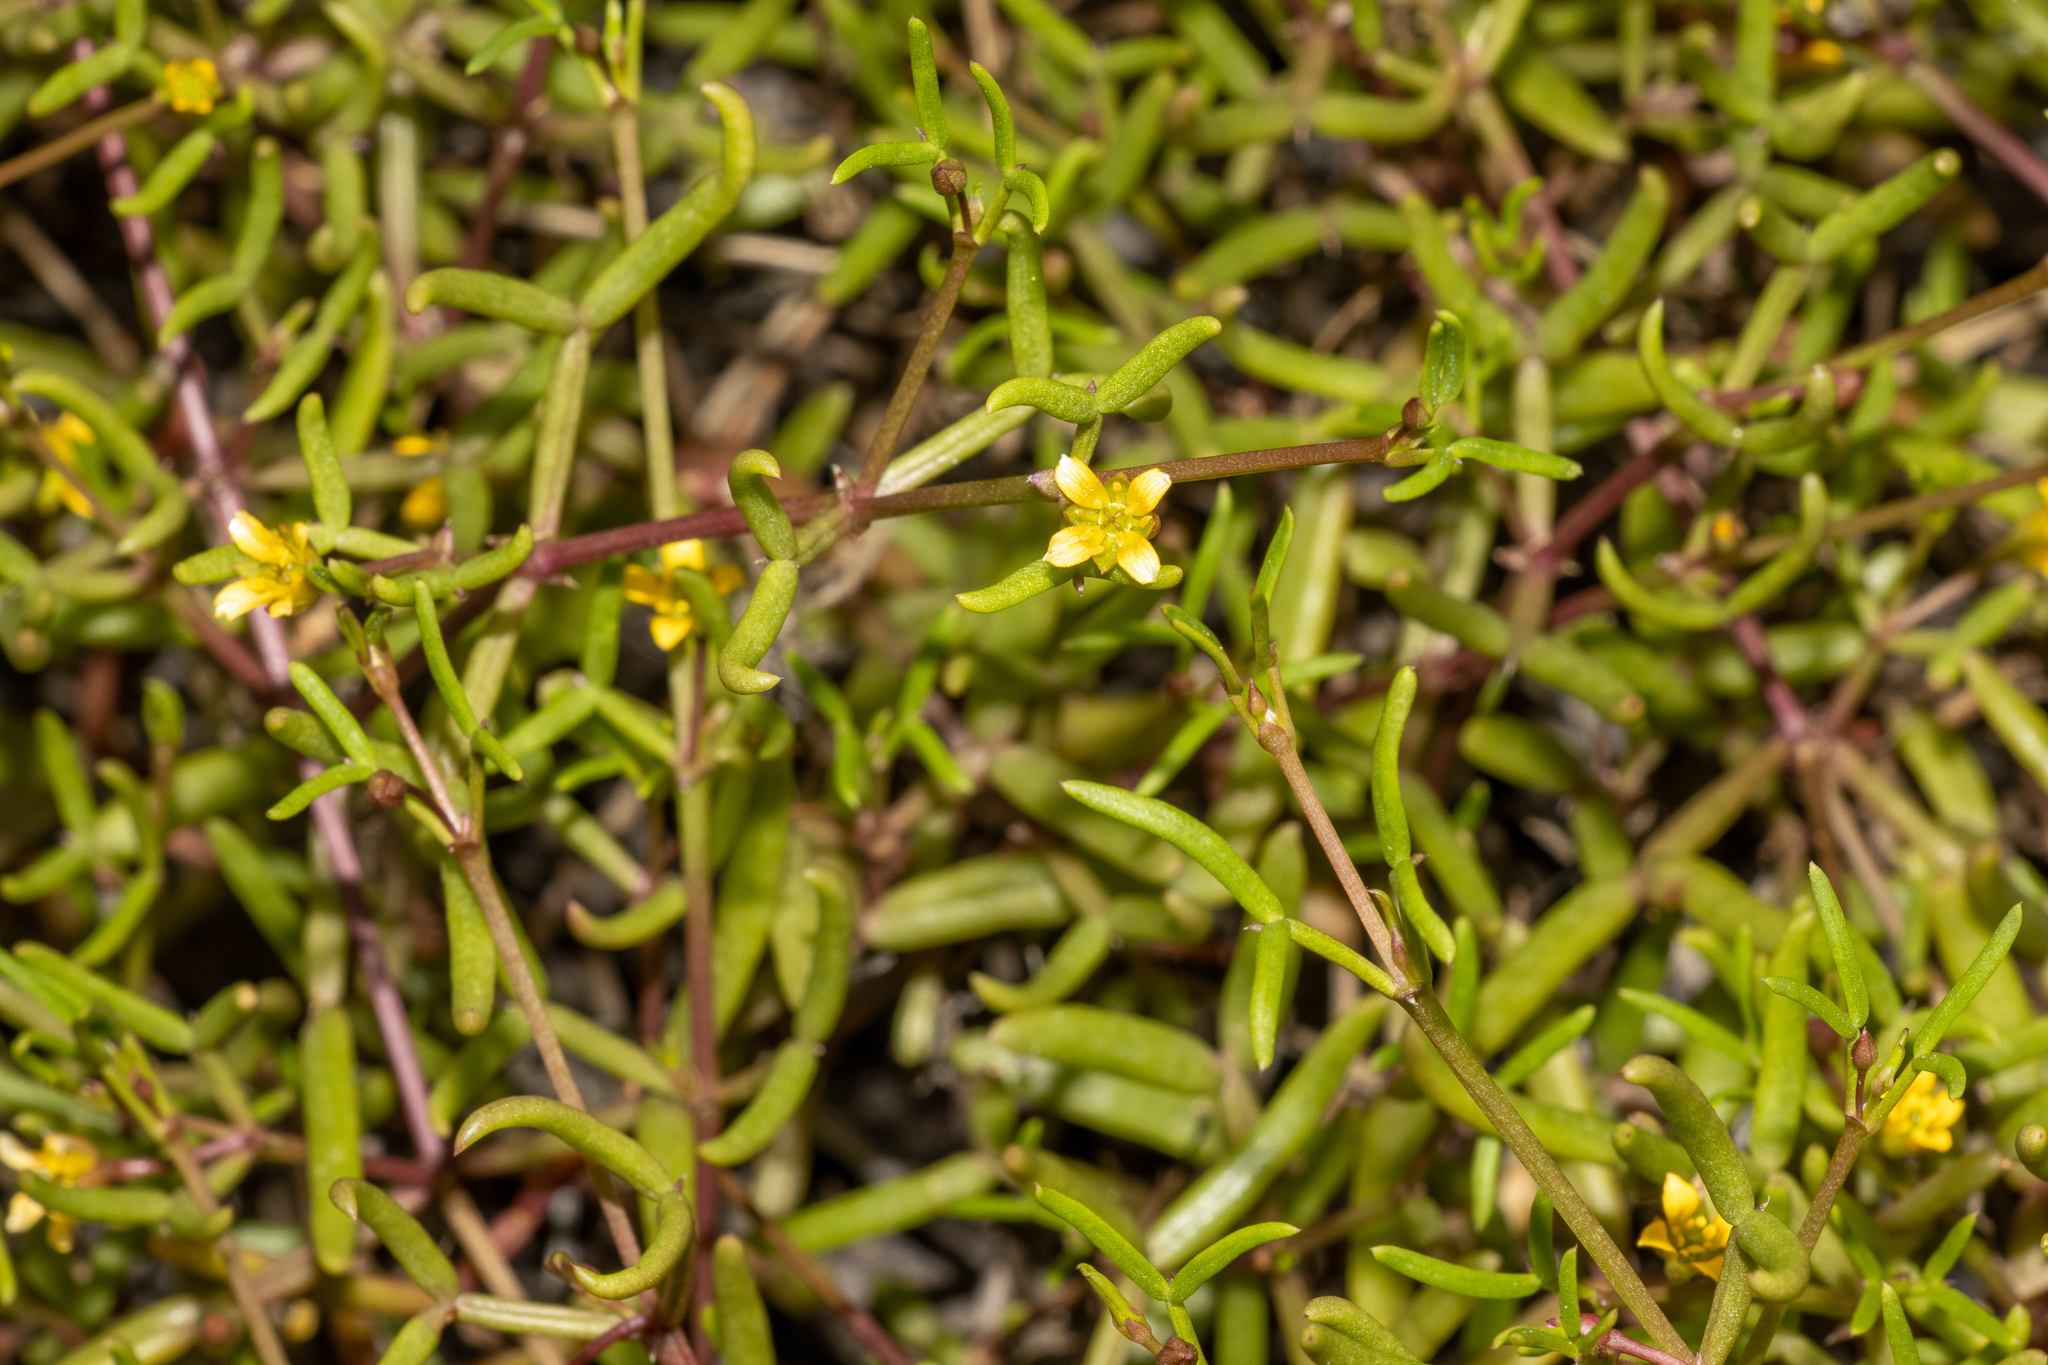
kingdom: Plantae
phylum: Tracheophyta
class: Magnoliopsida
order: Zygophyllales
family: Zygophyllaceae
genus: Roepera
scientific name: Roepera angustifolia
